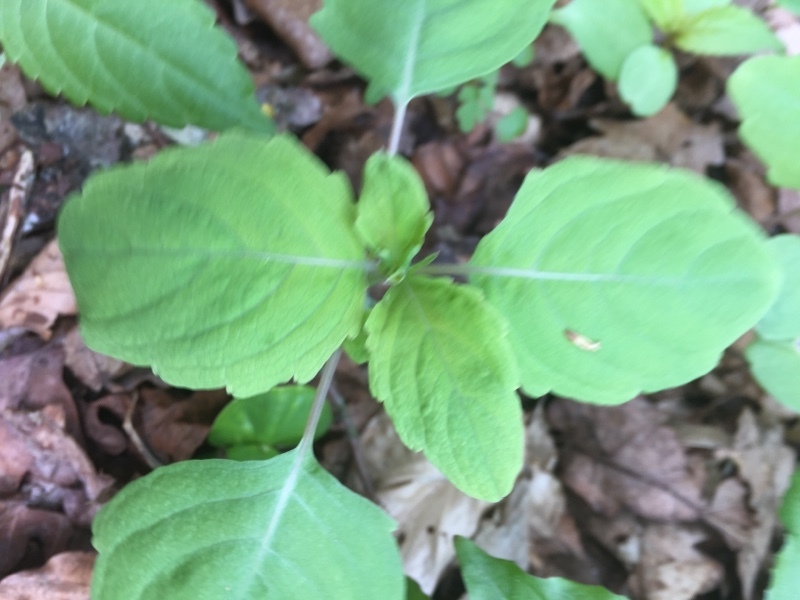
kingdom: Plantae
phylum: Tracheophyta
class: Magnoliopsida
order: Ericales
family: Balsaminaceae
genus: Impatiens
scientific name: Impatiens noli-tangere
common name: Touch-me-not balsam
